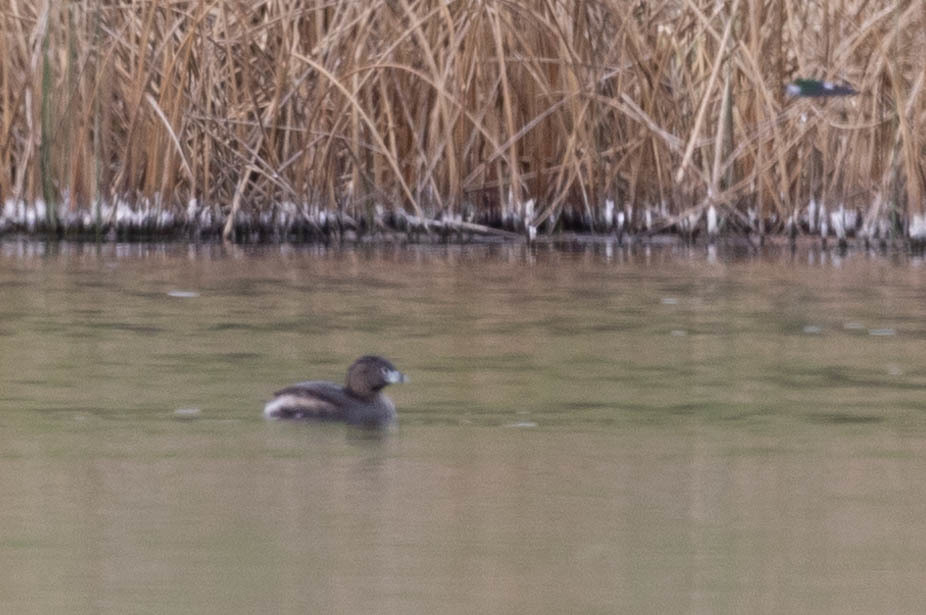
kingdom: Animalia
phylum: Chordata
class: Aves
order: Podicipediformes
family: Podicipedidae
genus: Podilymbus
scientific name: Podilymbus podiceps
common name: Pied-billed grebe
